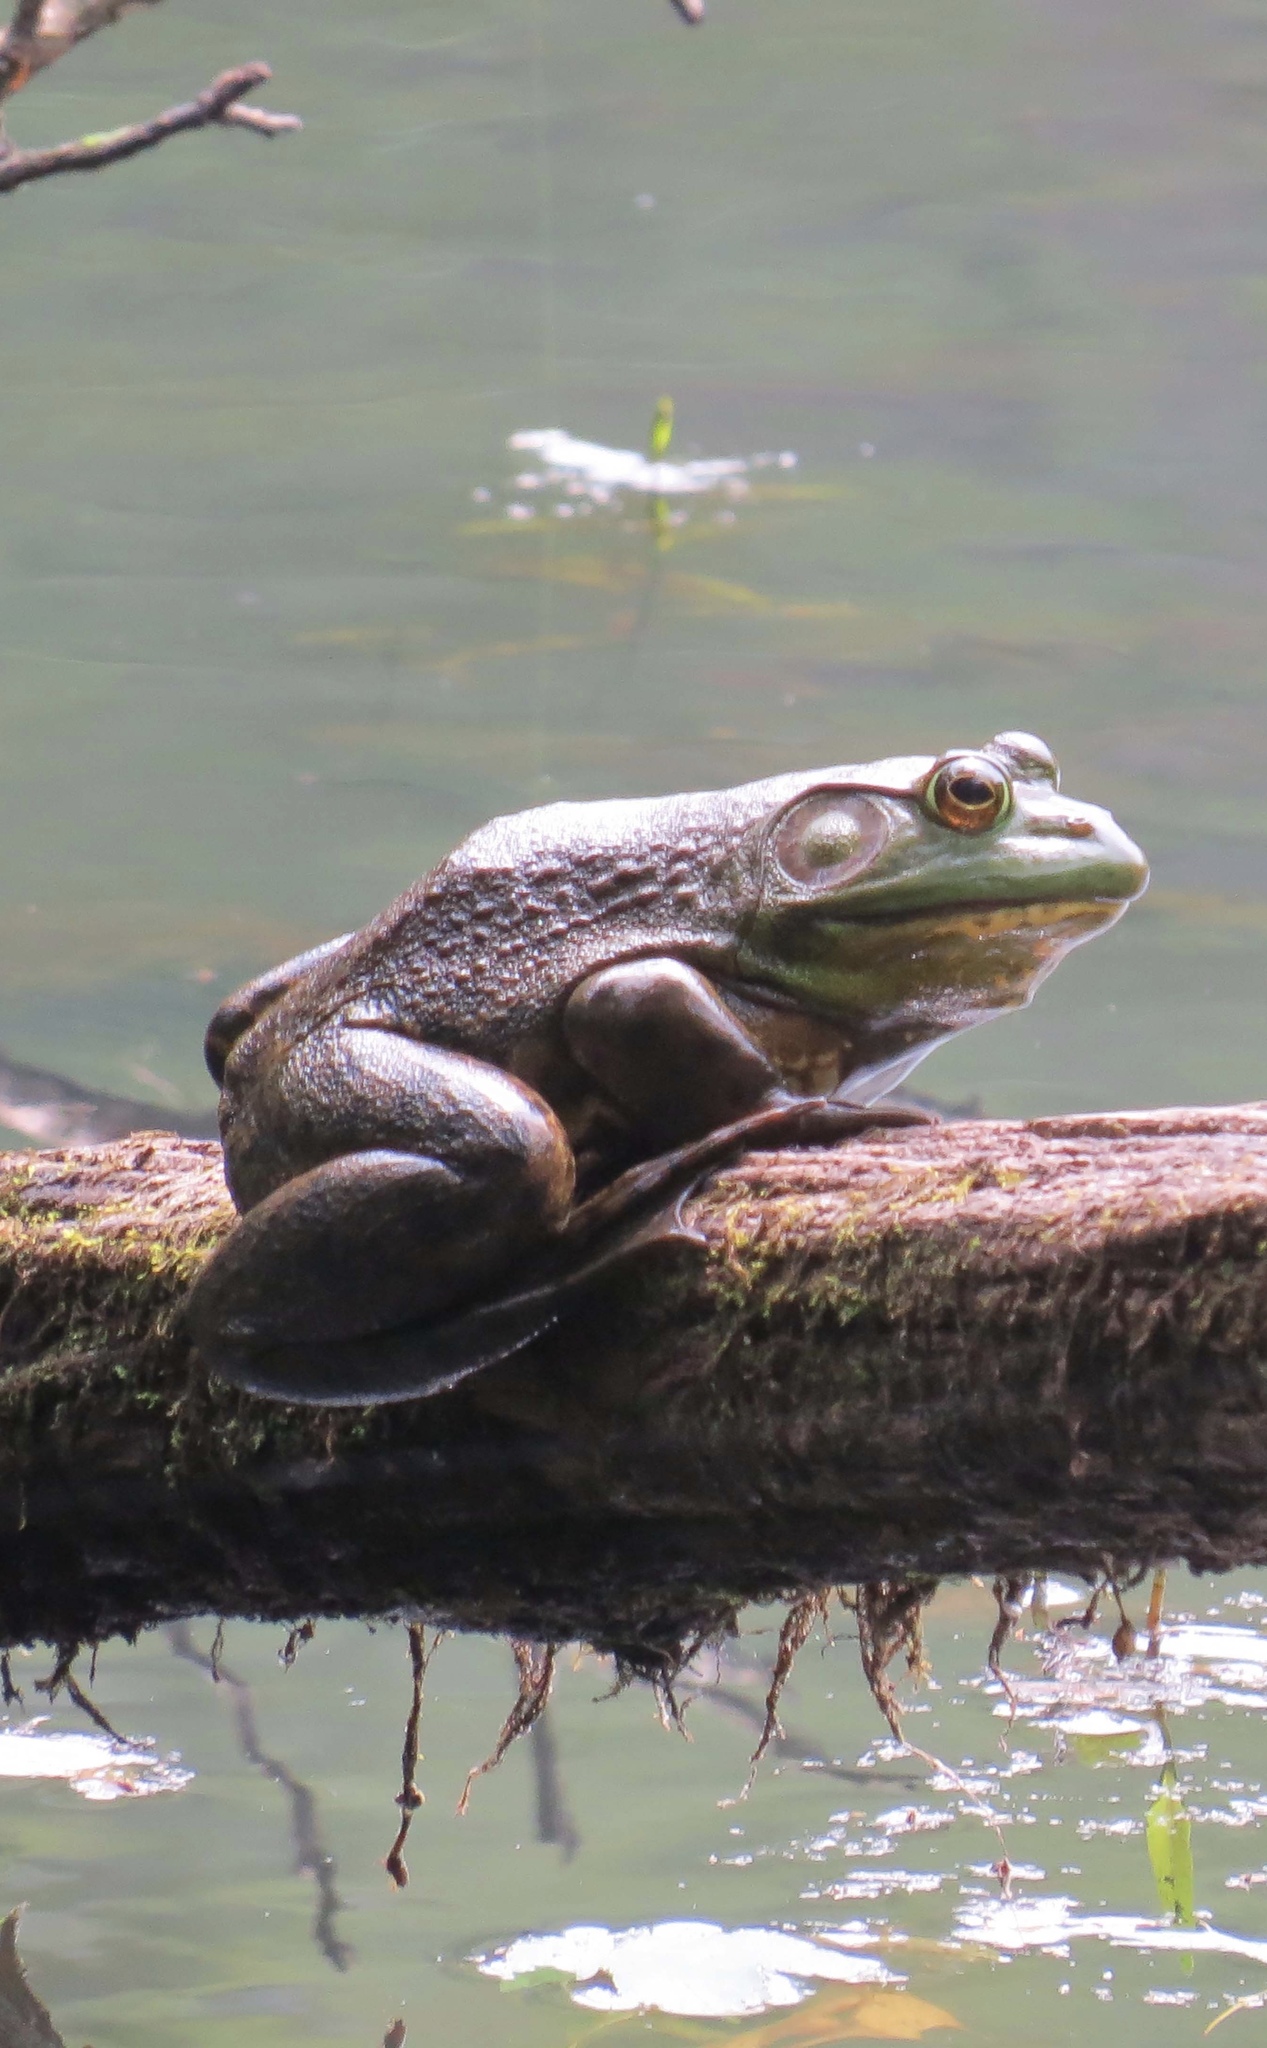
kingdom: Animalia
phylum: Chordata
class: Amphibia
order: Anura
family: Ranidae
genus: Lithobates
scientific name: Lithobates catesbeianus
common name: American bullfrog
